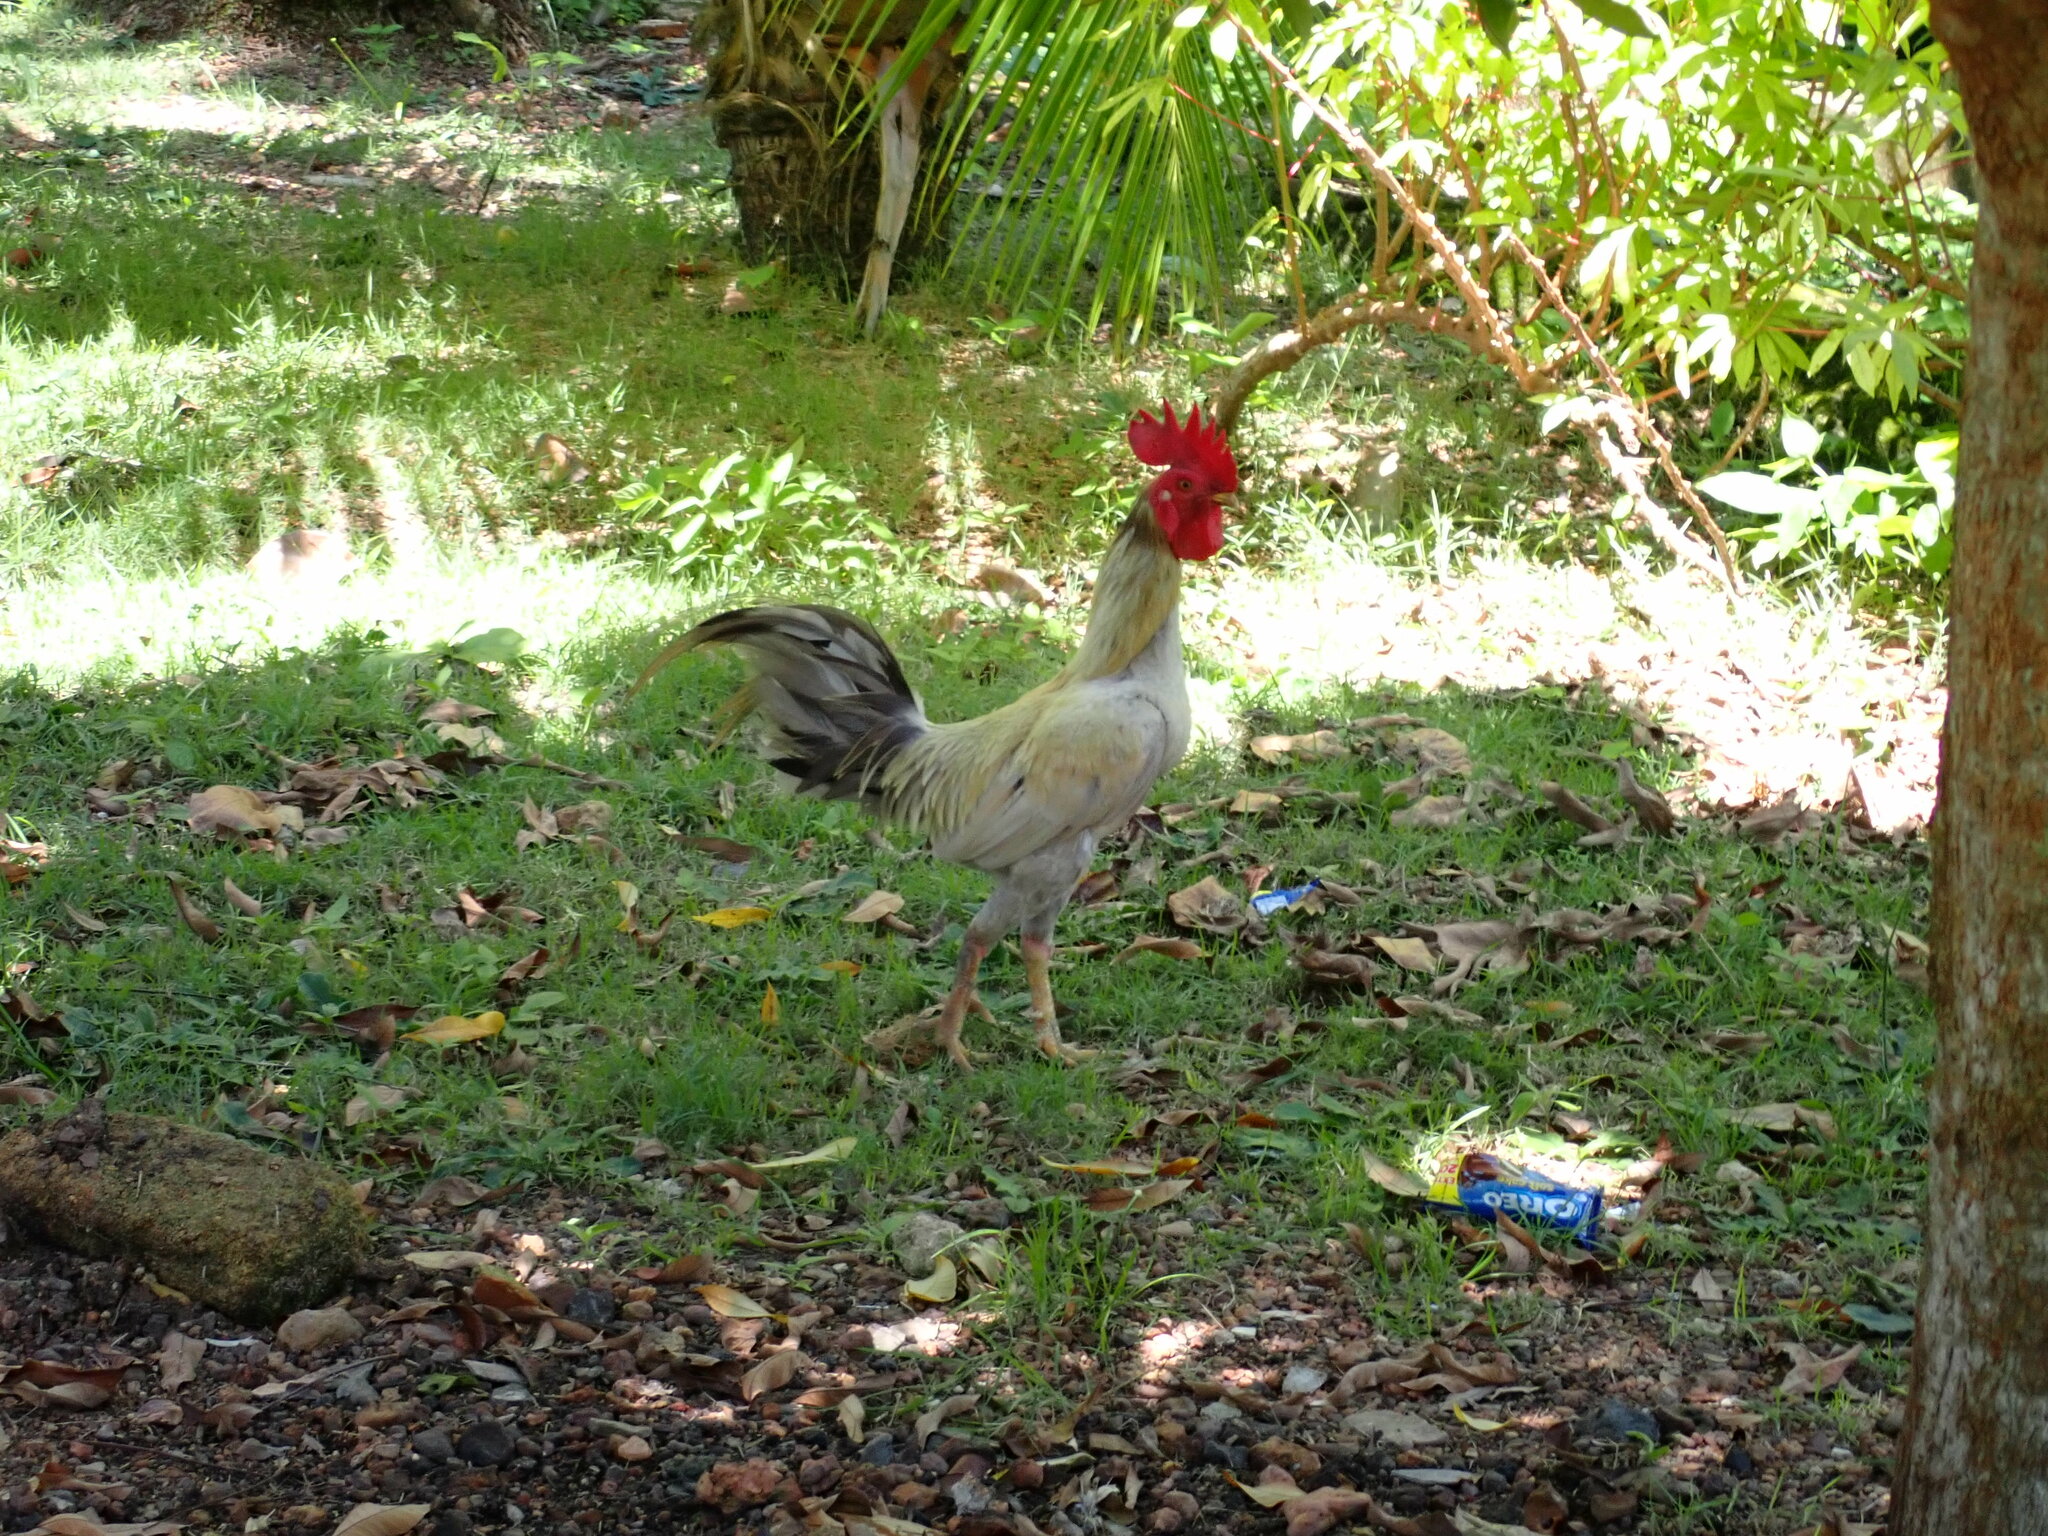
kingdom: Animalia
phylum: Chordata
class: Aves
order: Galliformes
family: Phasianidae
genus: Gallus
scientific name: Gallus gallus
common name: Red junglefowl
